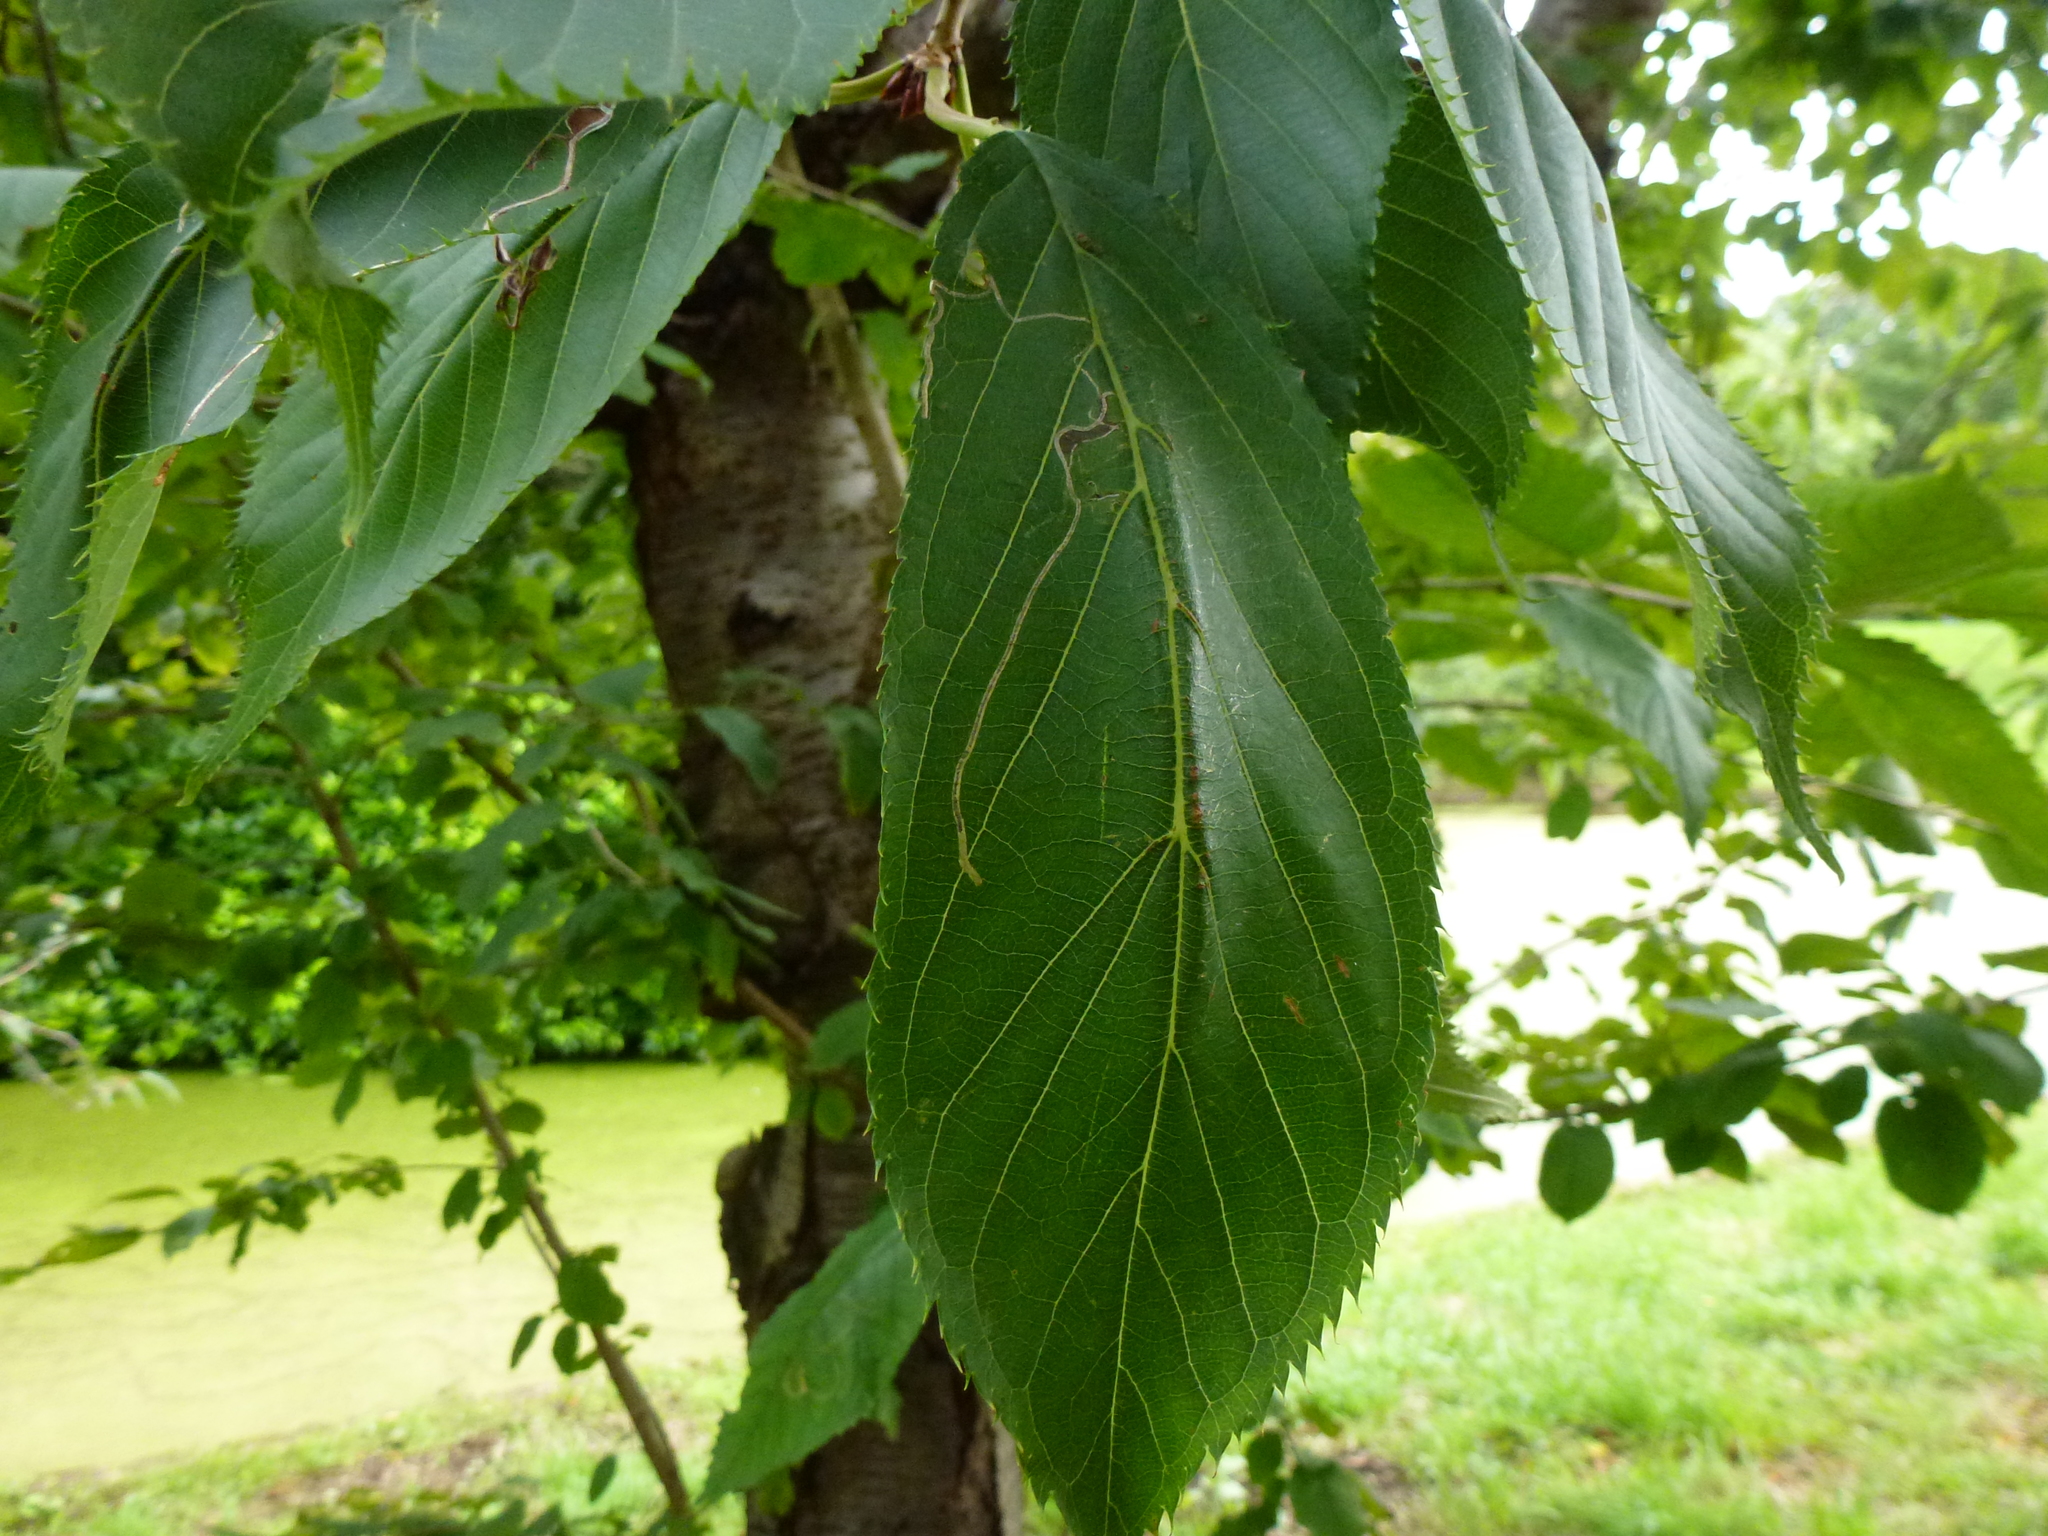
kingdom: Animalia
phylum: Arthropoda
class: Insecta
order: Lepidoptera
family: Lyonetiidae
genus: Lyonetia
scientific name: Lyonetia clerkella
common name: Apple leaf miner
